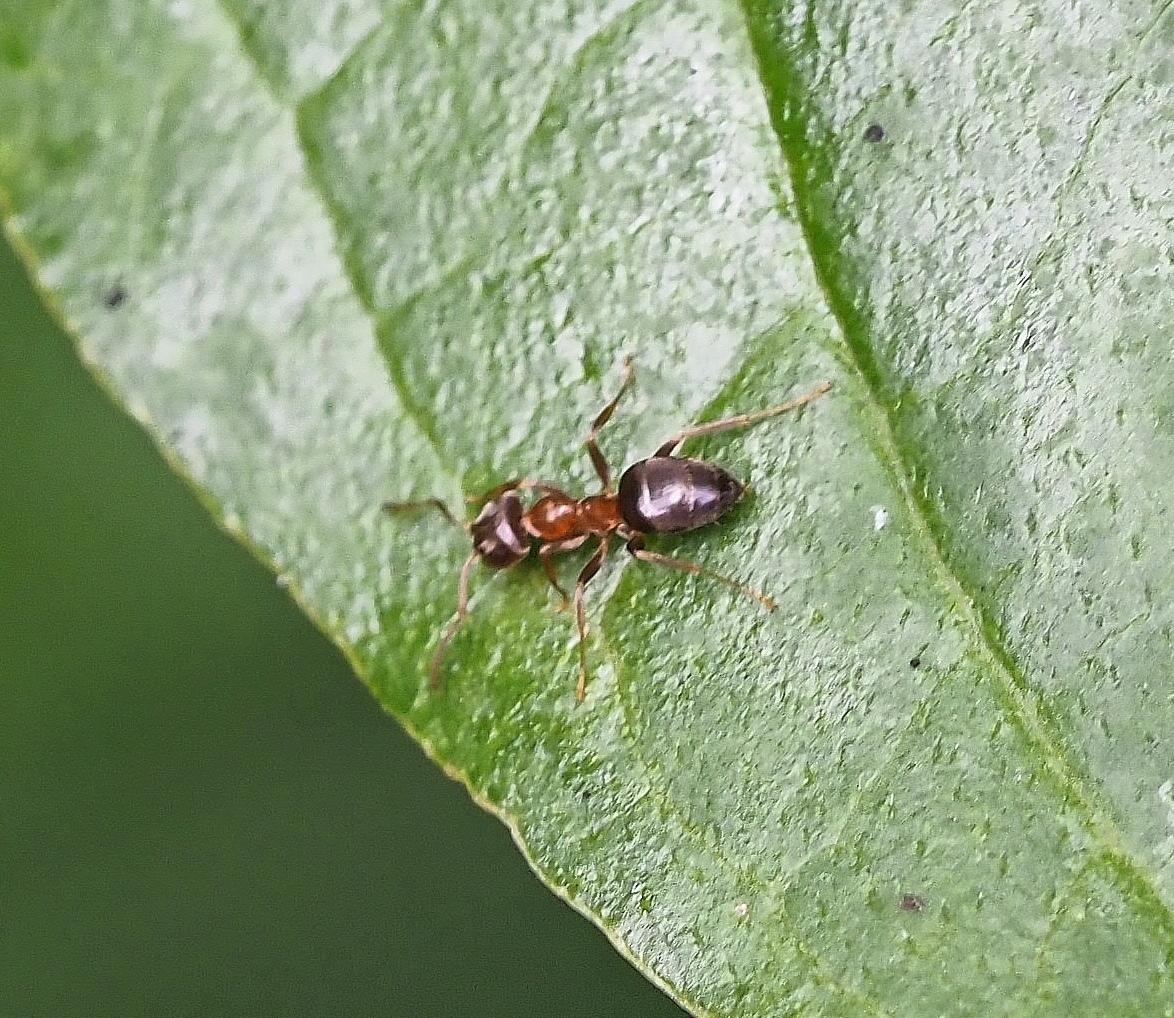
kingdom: Animalia
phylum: Arthropoda
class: Insecta
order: Hymenoptera
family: Formicidae
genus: Lasius
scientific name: Lasius brunneus
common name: Brown ant
